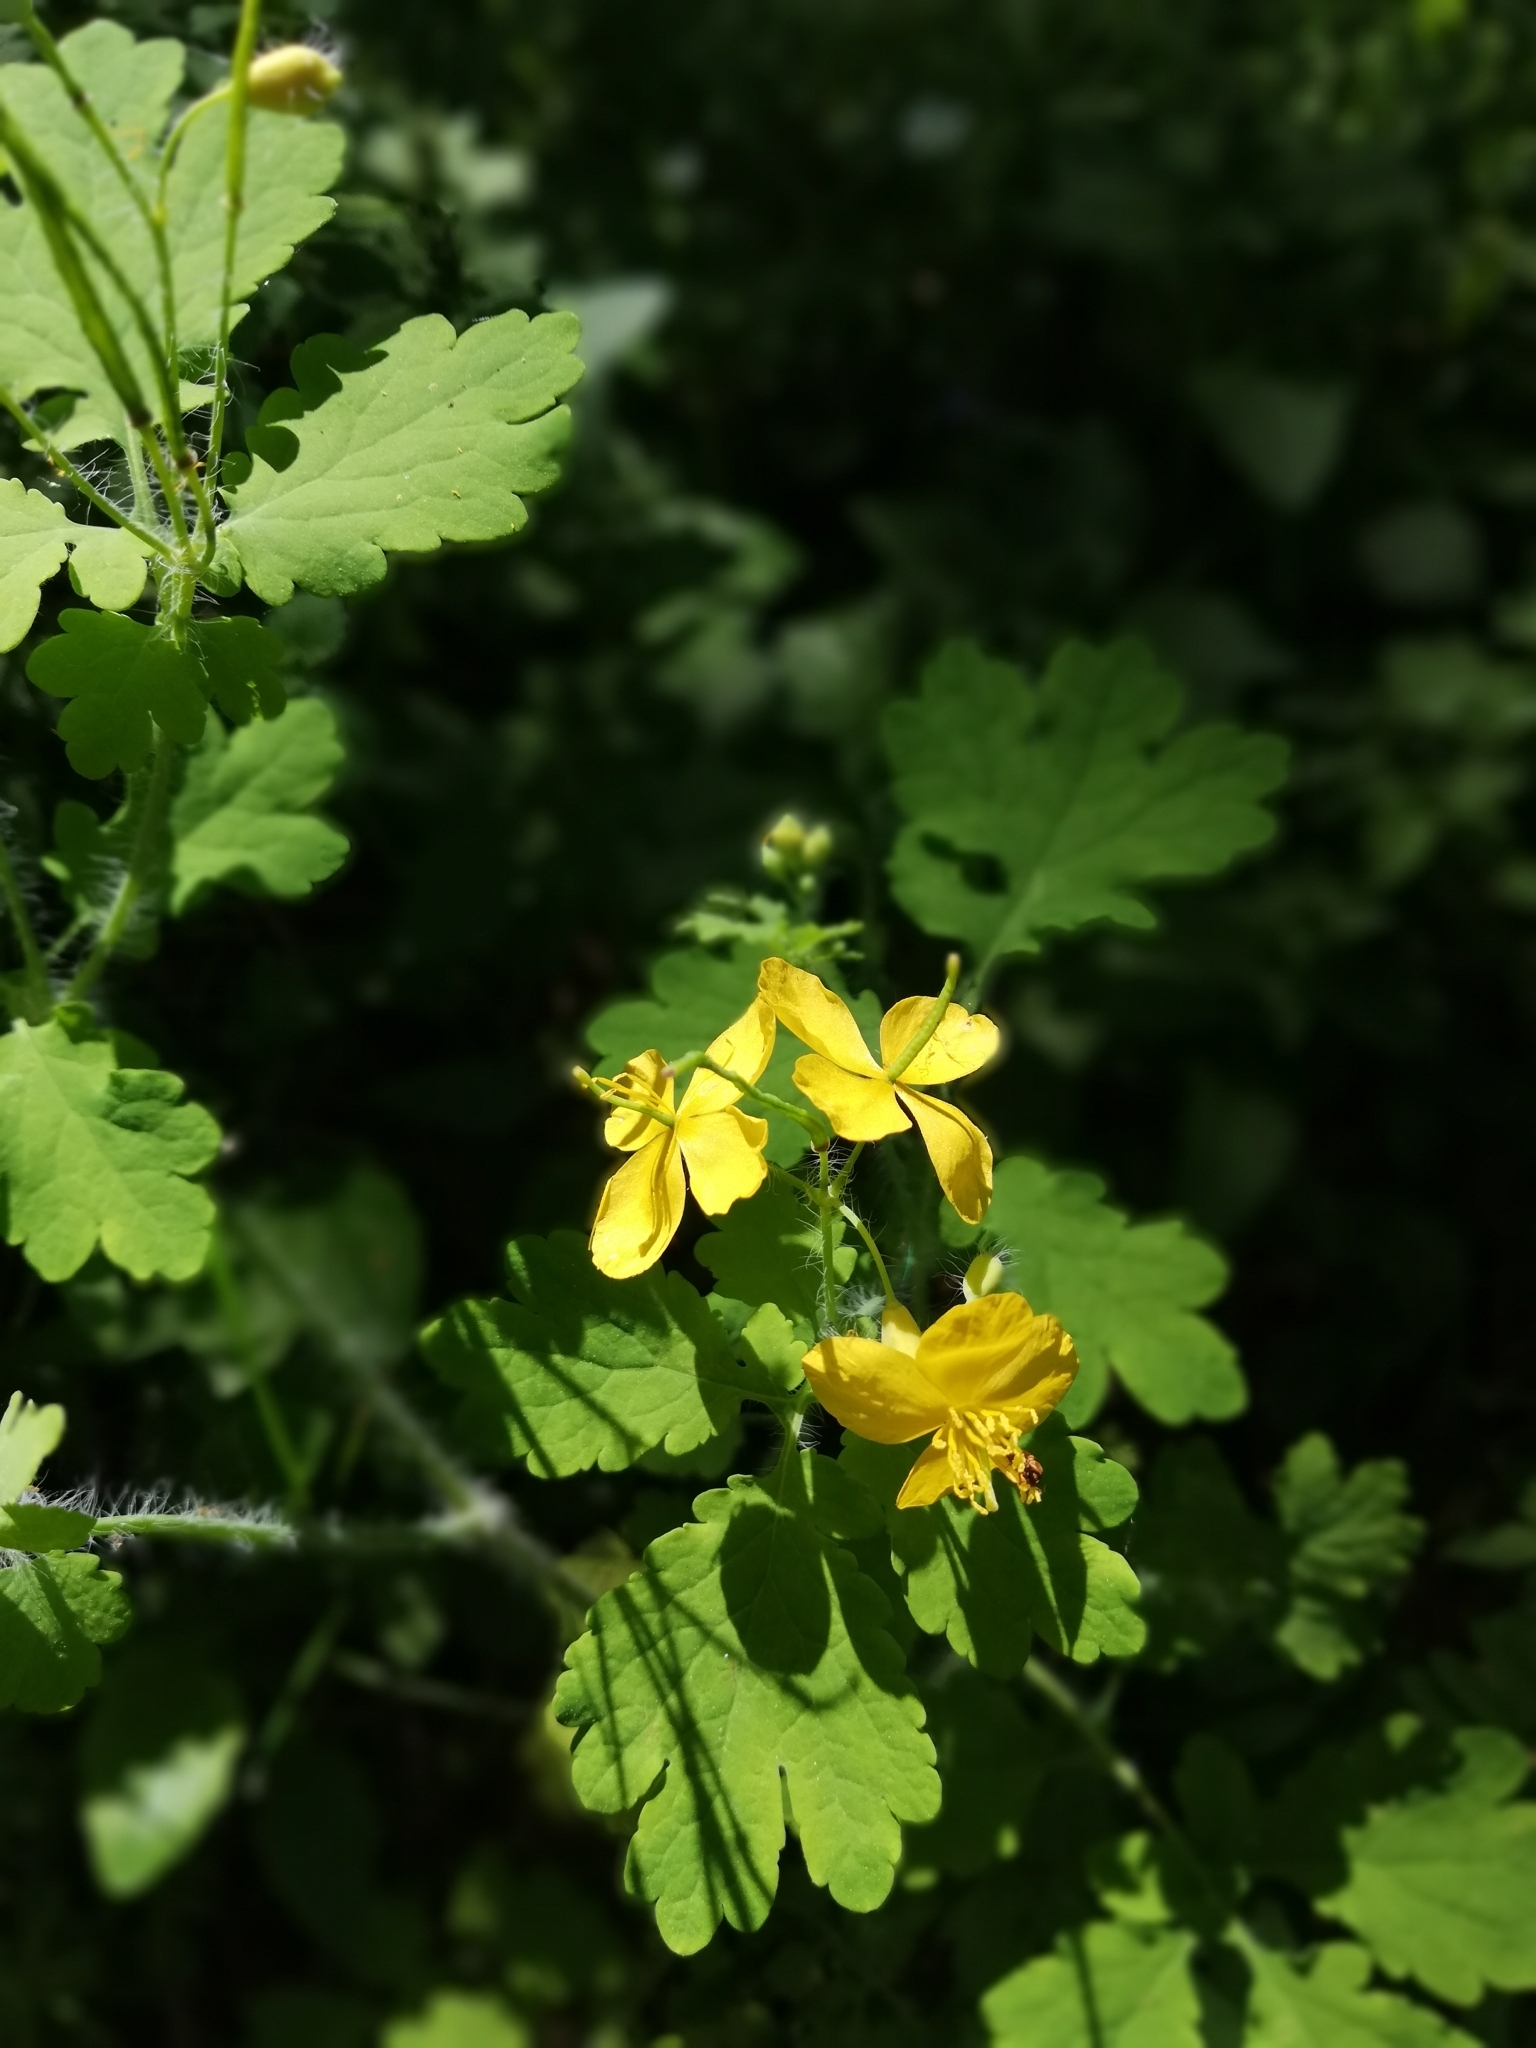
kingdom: Plantae
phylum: Tracheophyta
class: Magnoliopsida
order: Ranunculales
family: Papaveraceae
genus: Chelidonium
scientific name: Chelidonium majus
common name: Greater celandine
